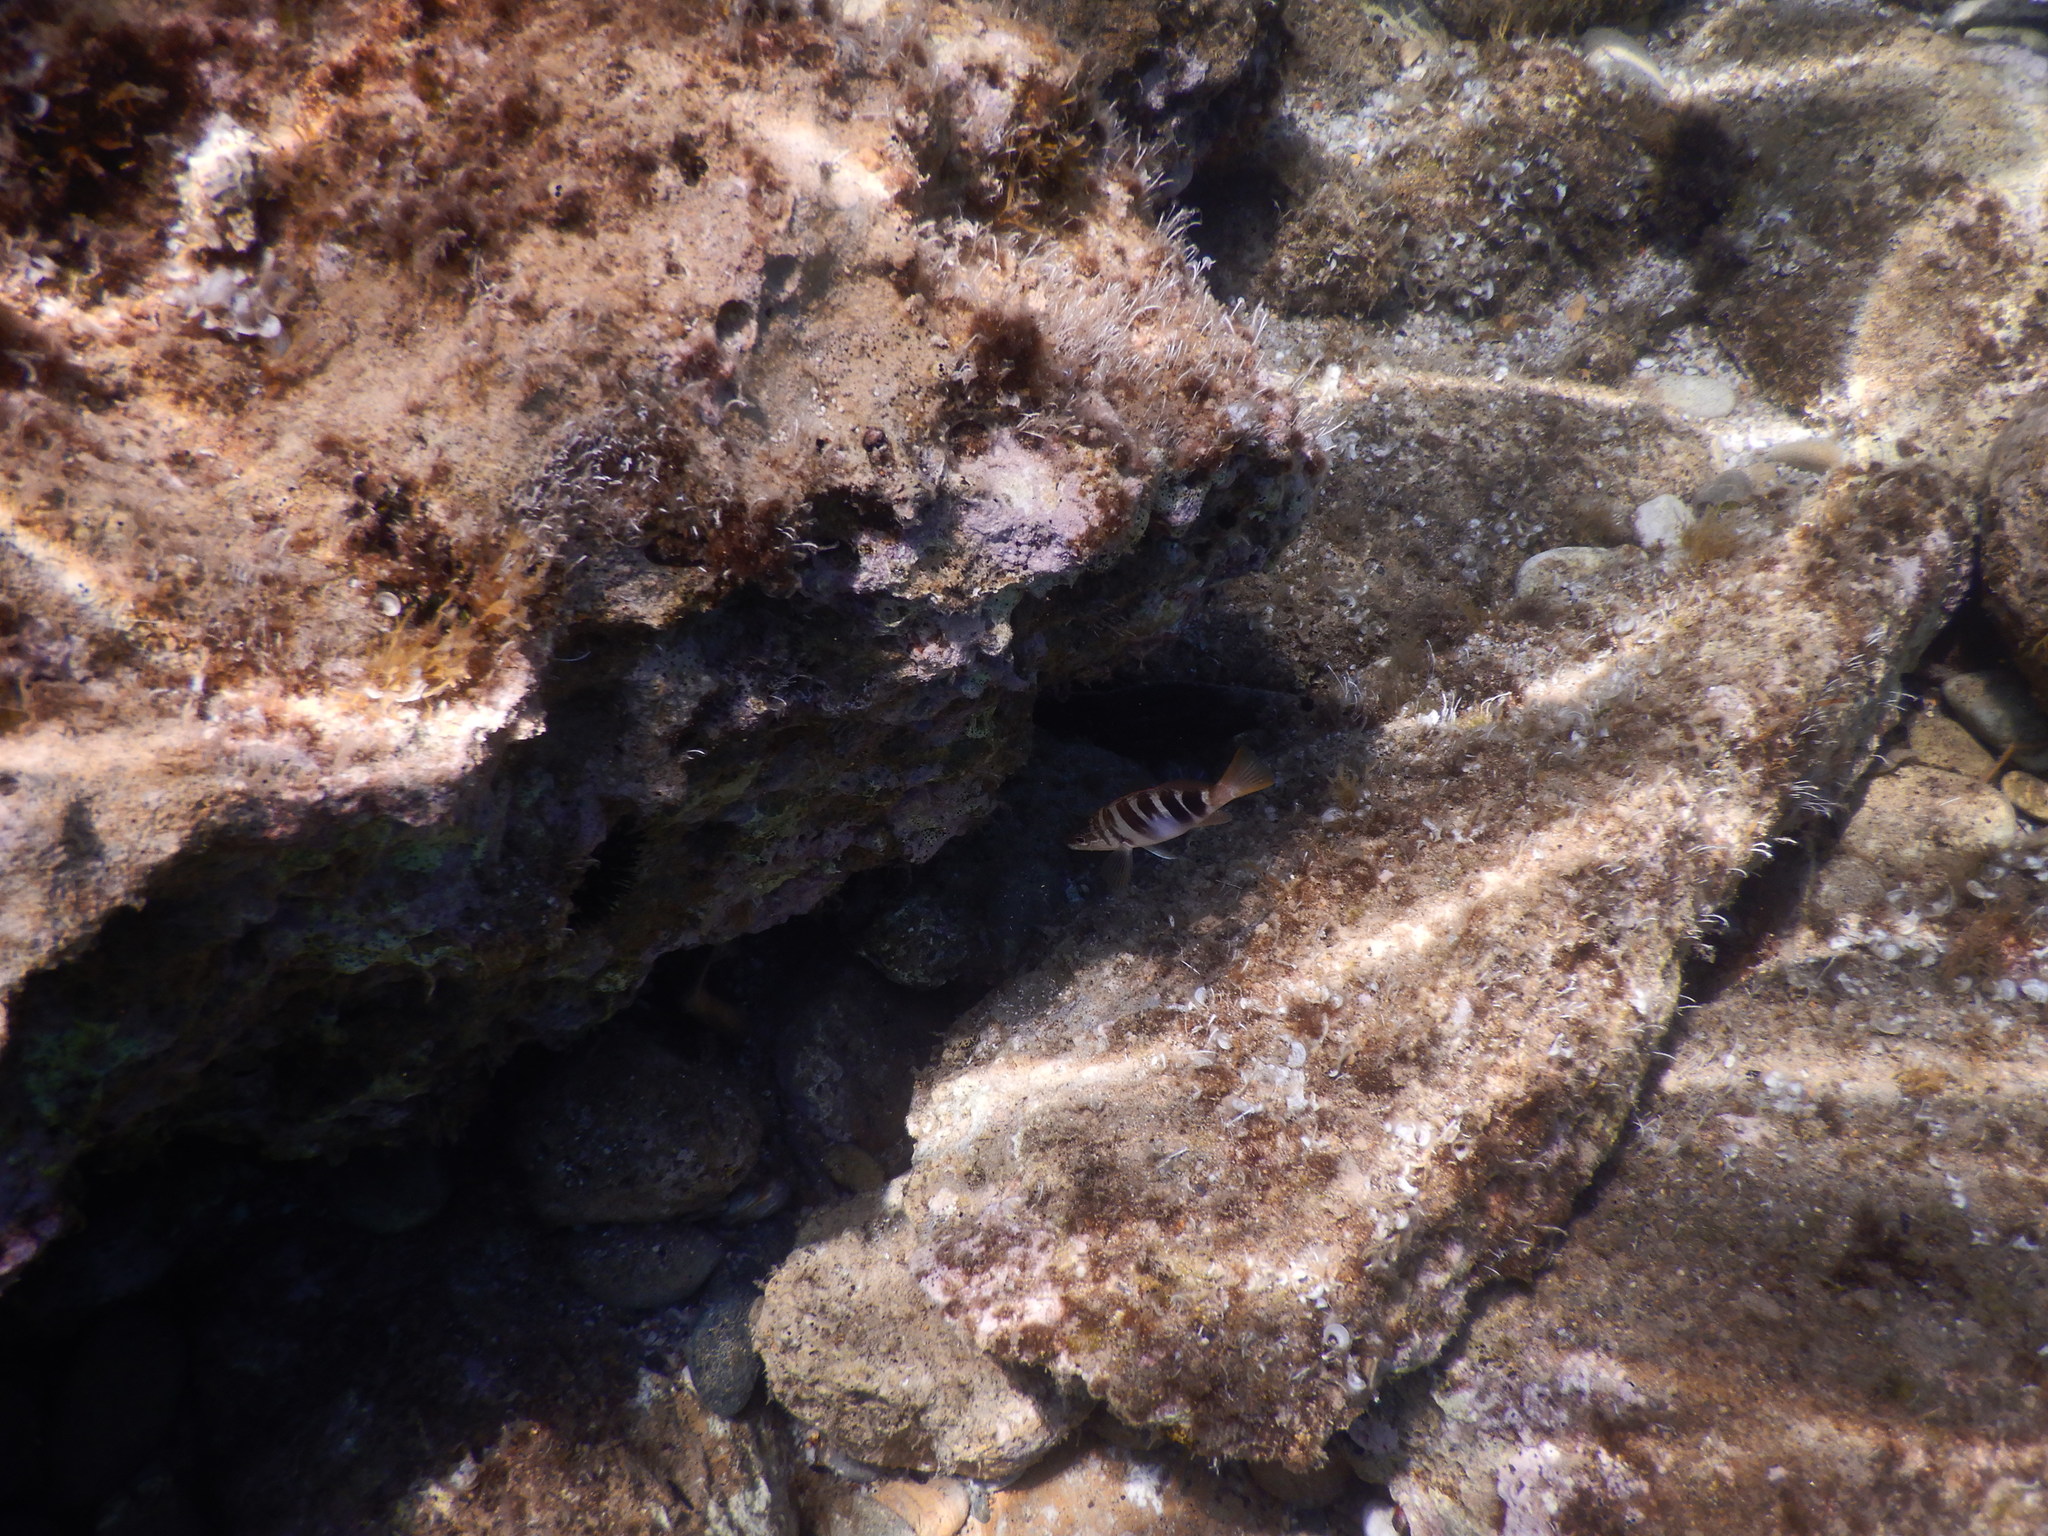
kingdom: Animalia
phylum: Chordata
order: Perciformes
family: Serranidae
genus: Serranus
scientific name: Serranus scriba
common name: Painted comber
